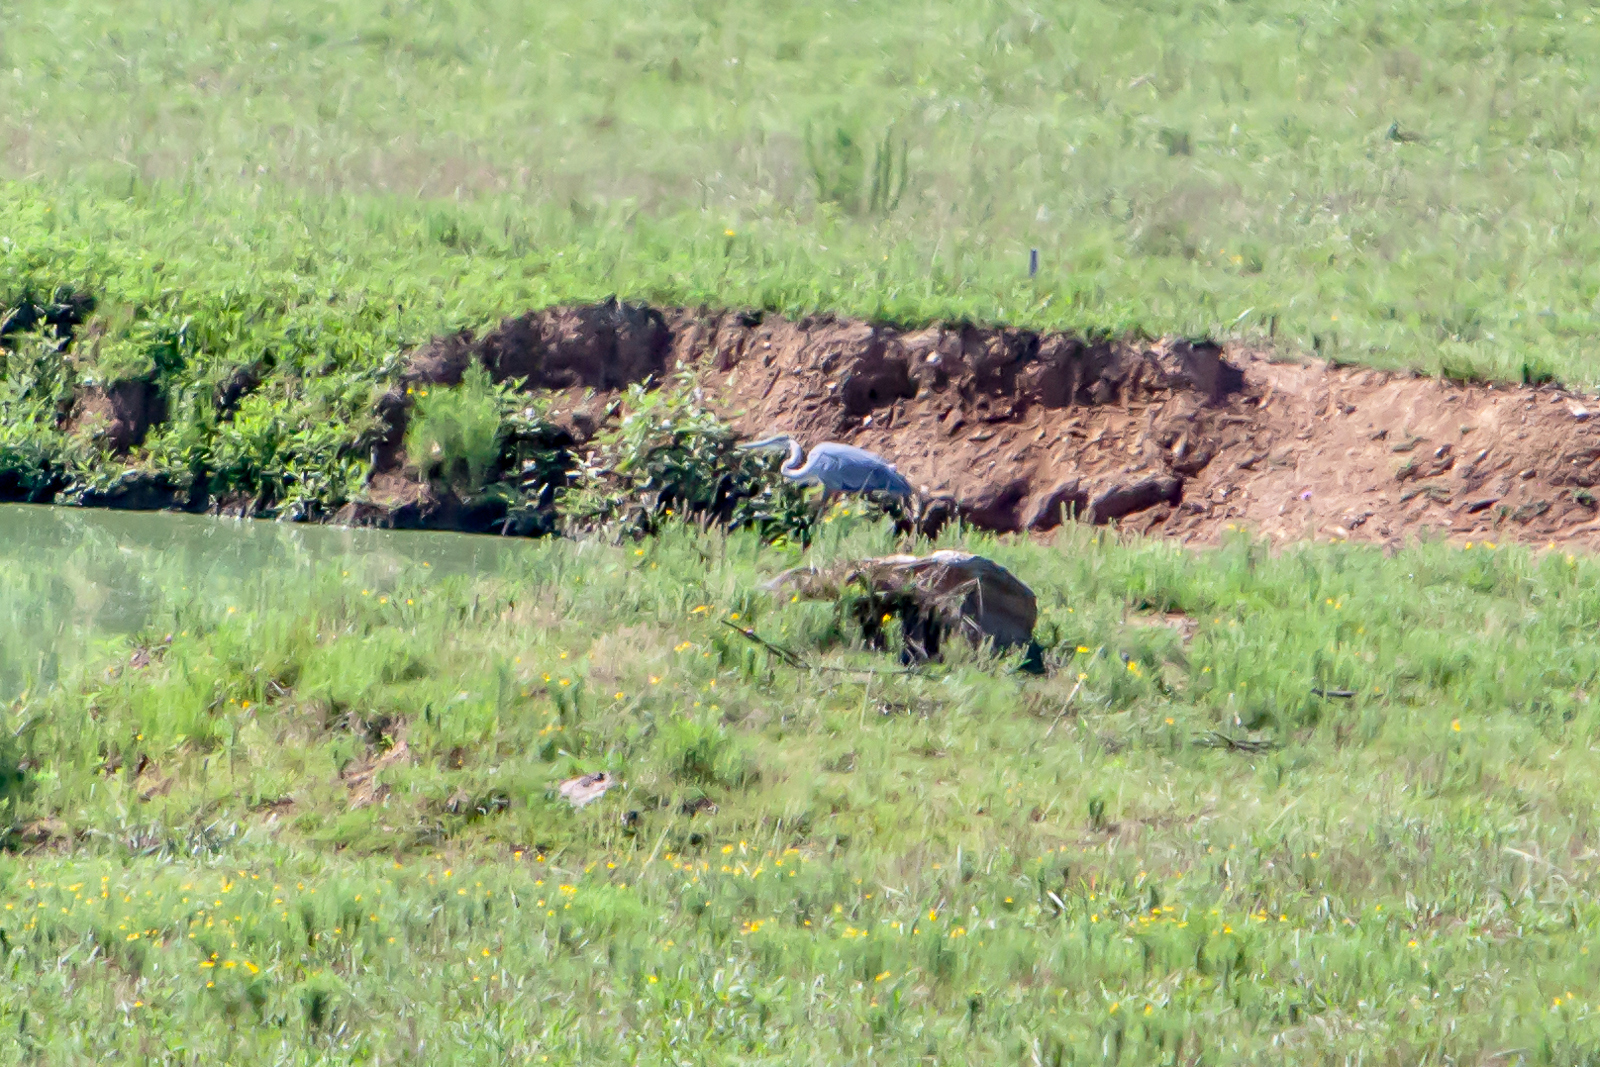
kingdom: Animalia
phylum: Chordata
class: Aves
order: Pelecaniformes
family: Ardeidae
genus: Ardea
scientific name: Ardea herodias
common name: Great blue heron
